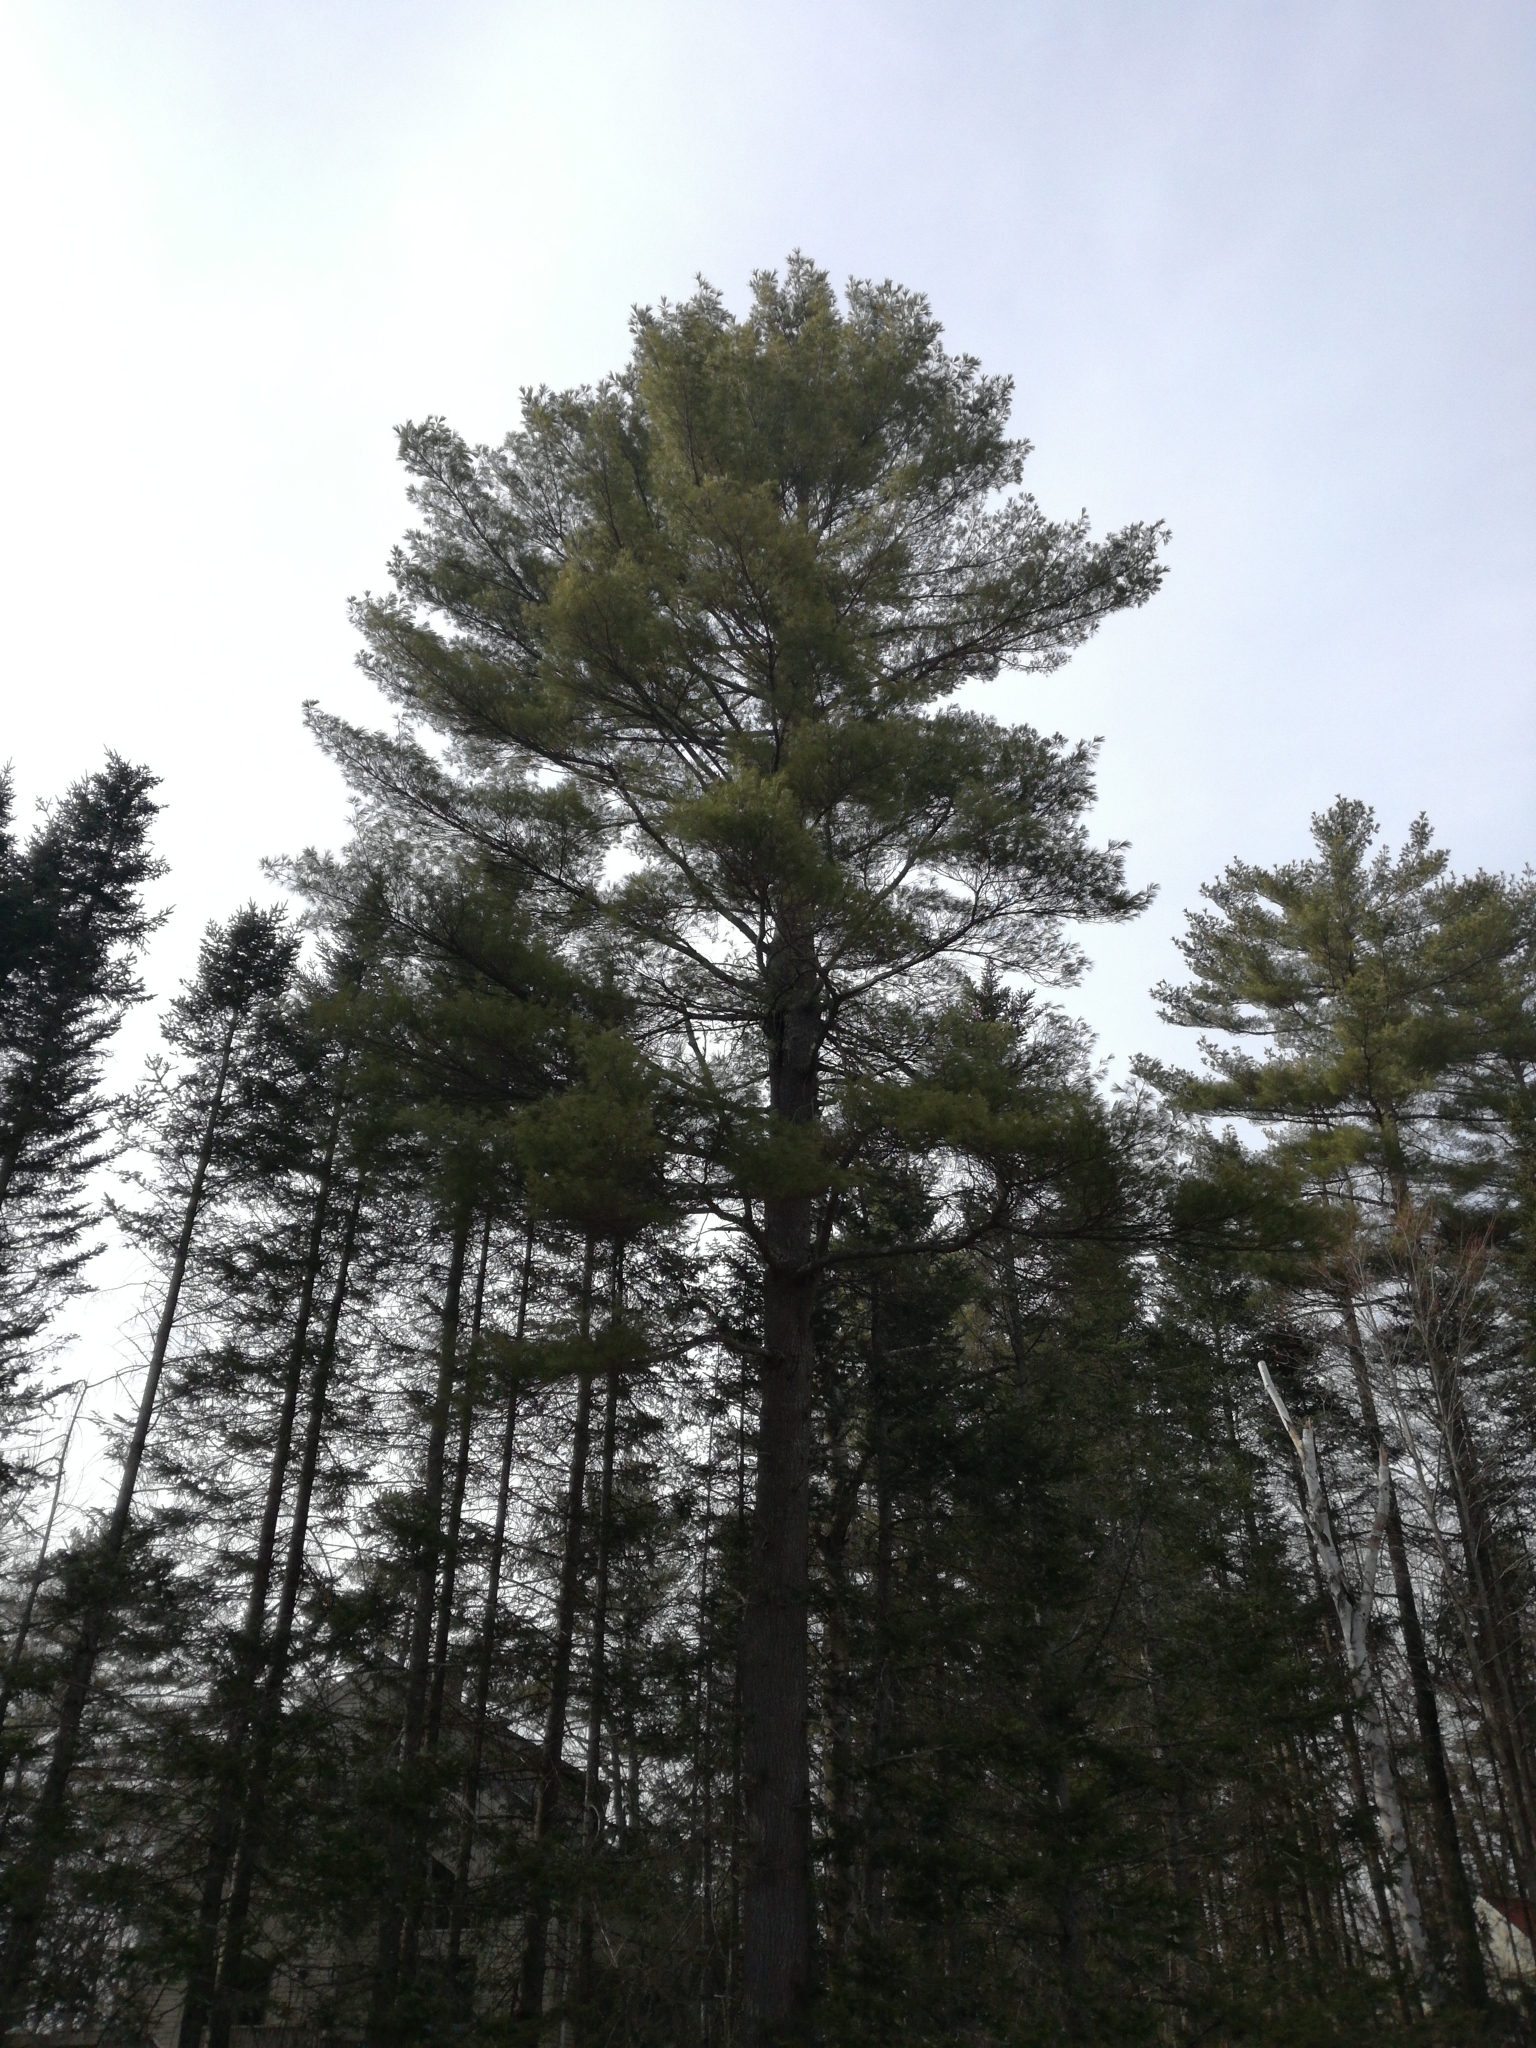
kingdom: Plantae
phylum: Tracheophyta
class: Pinopsida
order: Pinales
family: Pinaceae
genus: Pinus
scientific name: Pinus strobus
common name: Weymouth pine
